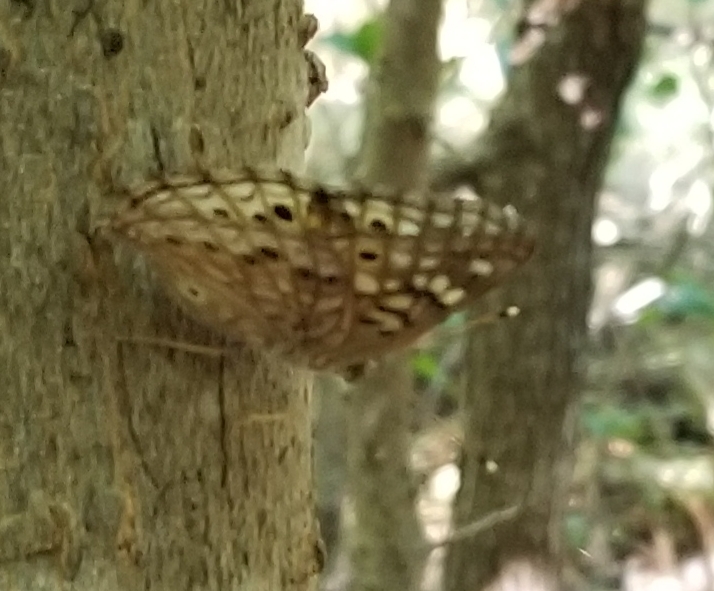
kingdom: Animalia
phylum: Arthropoda
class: Insecta
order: Lepidoptera
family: Nymphalidae
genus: Asterocampa
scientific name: Asterocampa celtis
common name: Hackberry emperor
